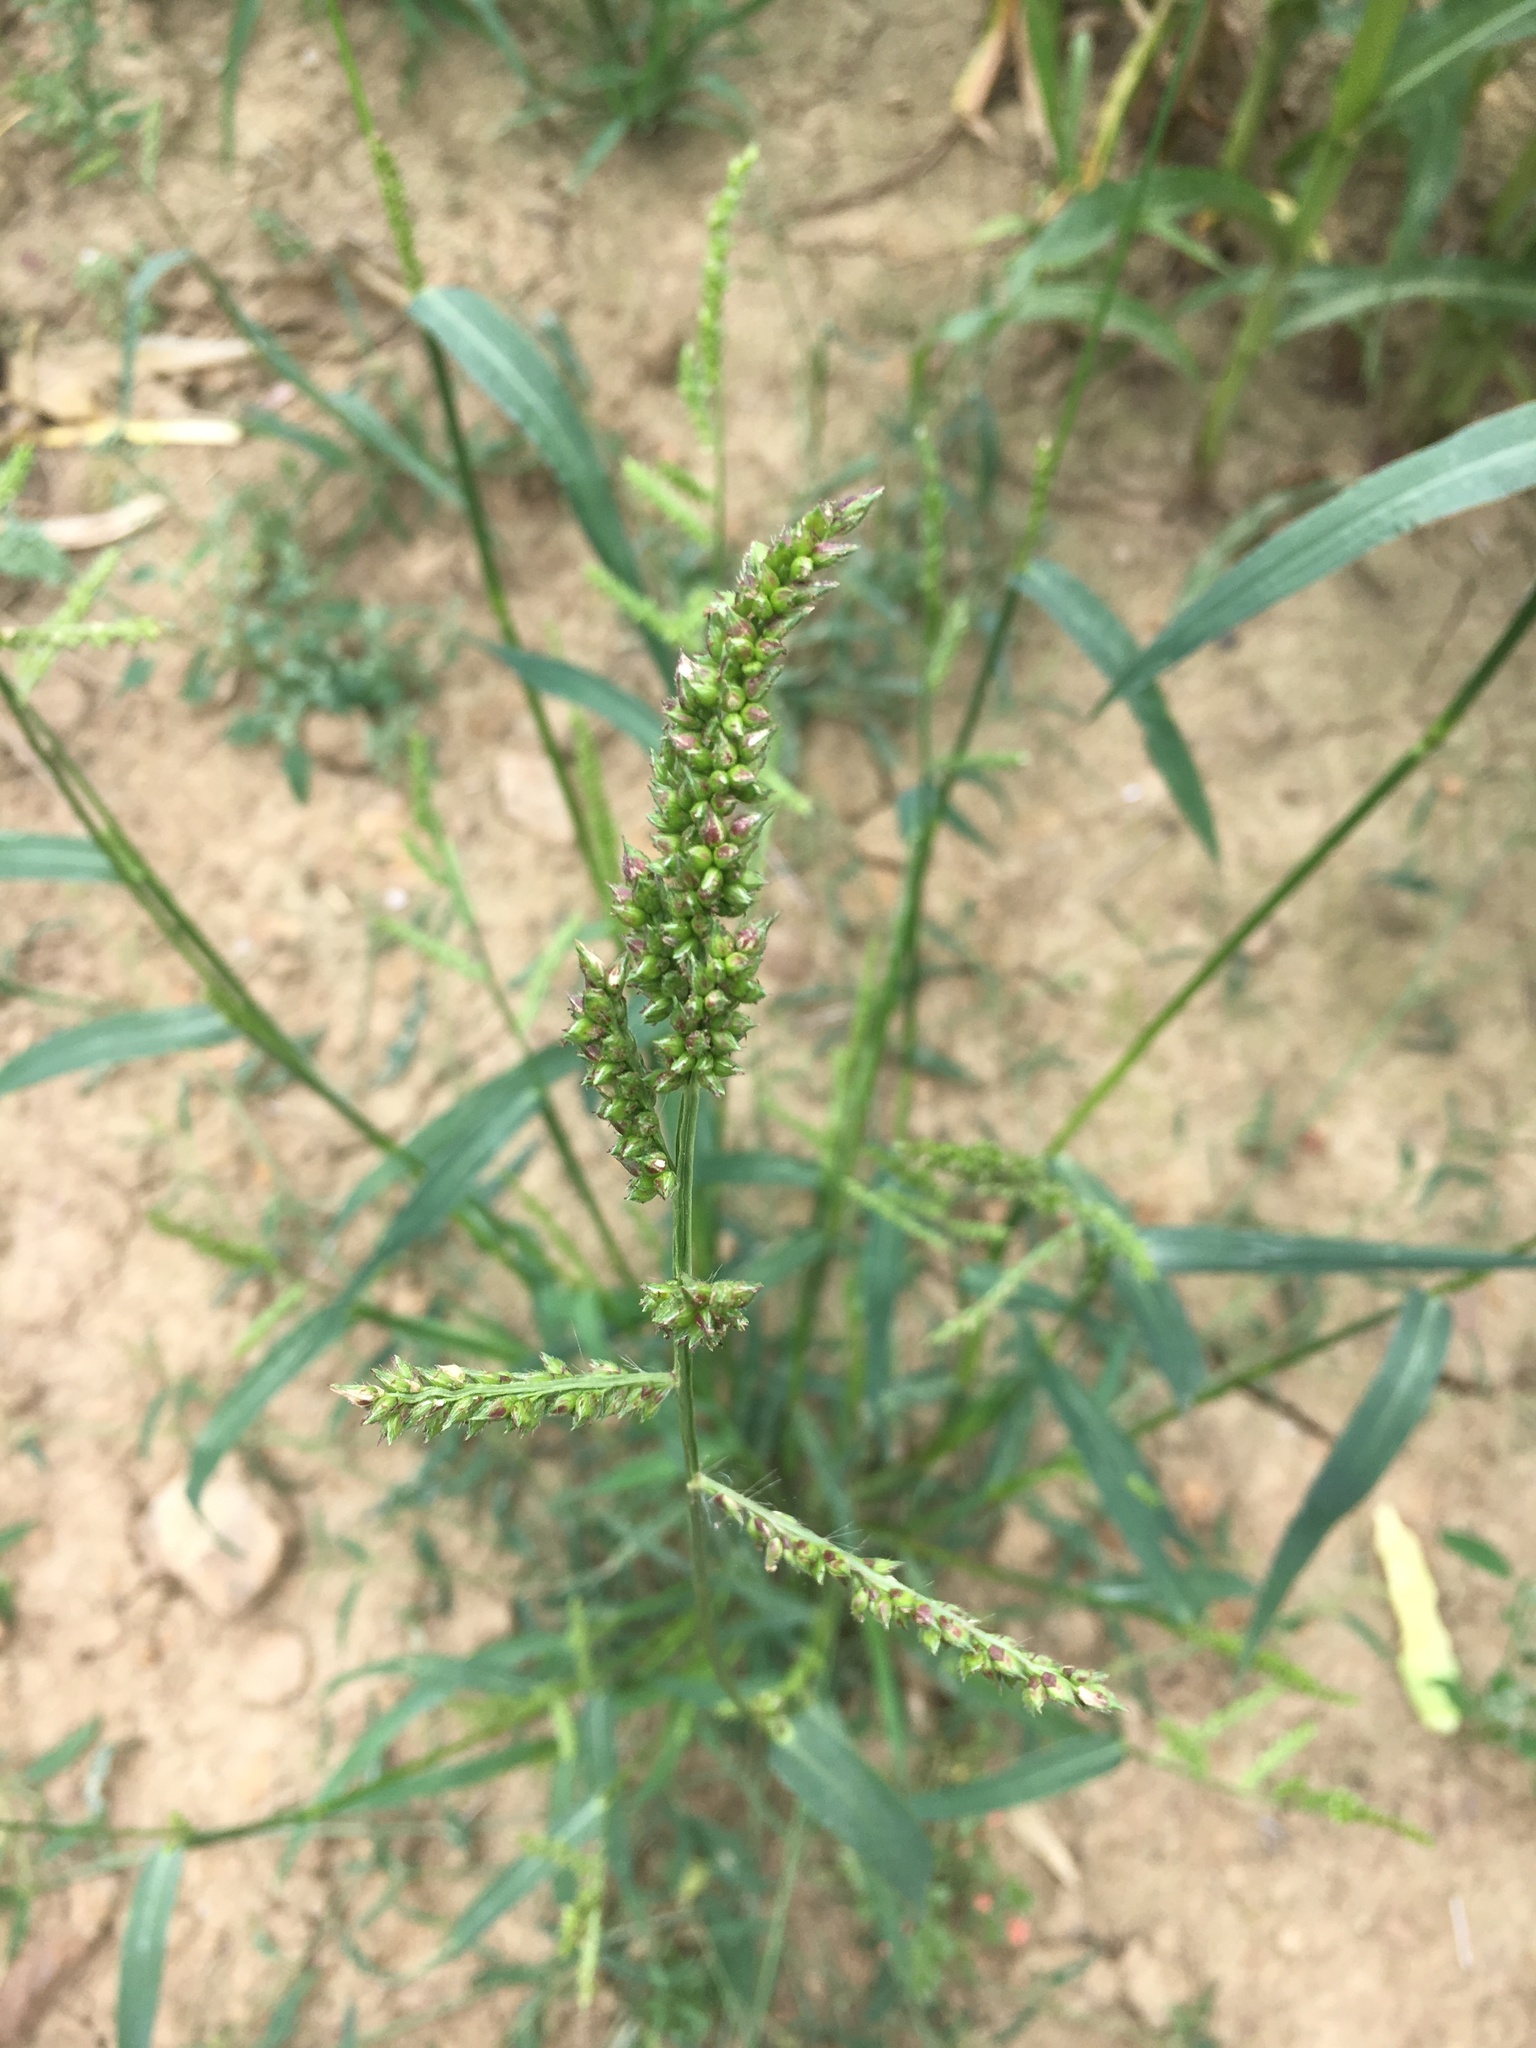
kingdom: Plantae
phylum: Tracheophyta
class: Liliopsida
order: Poales
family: Poaceae
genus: Echinochloa
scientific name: Echinochloa crus-galli
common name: Cockspur
